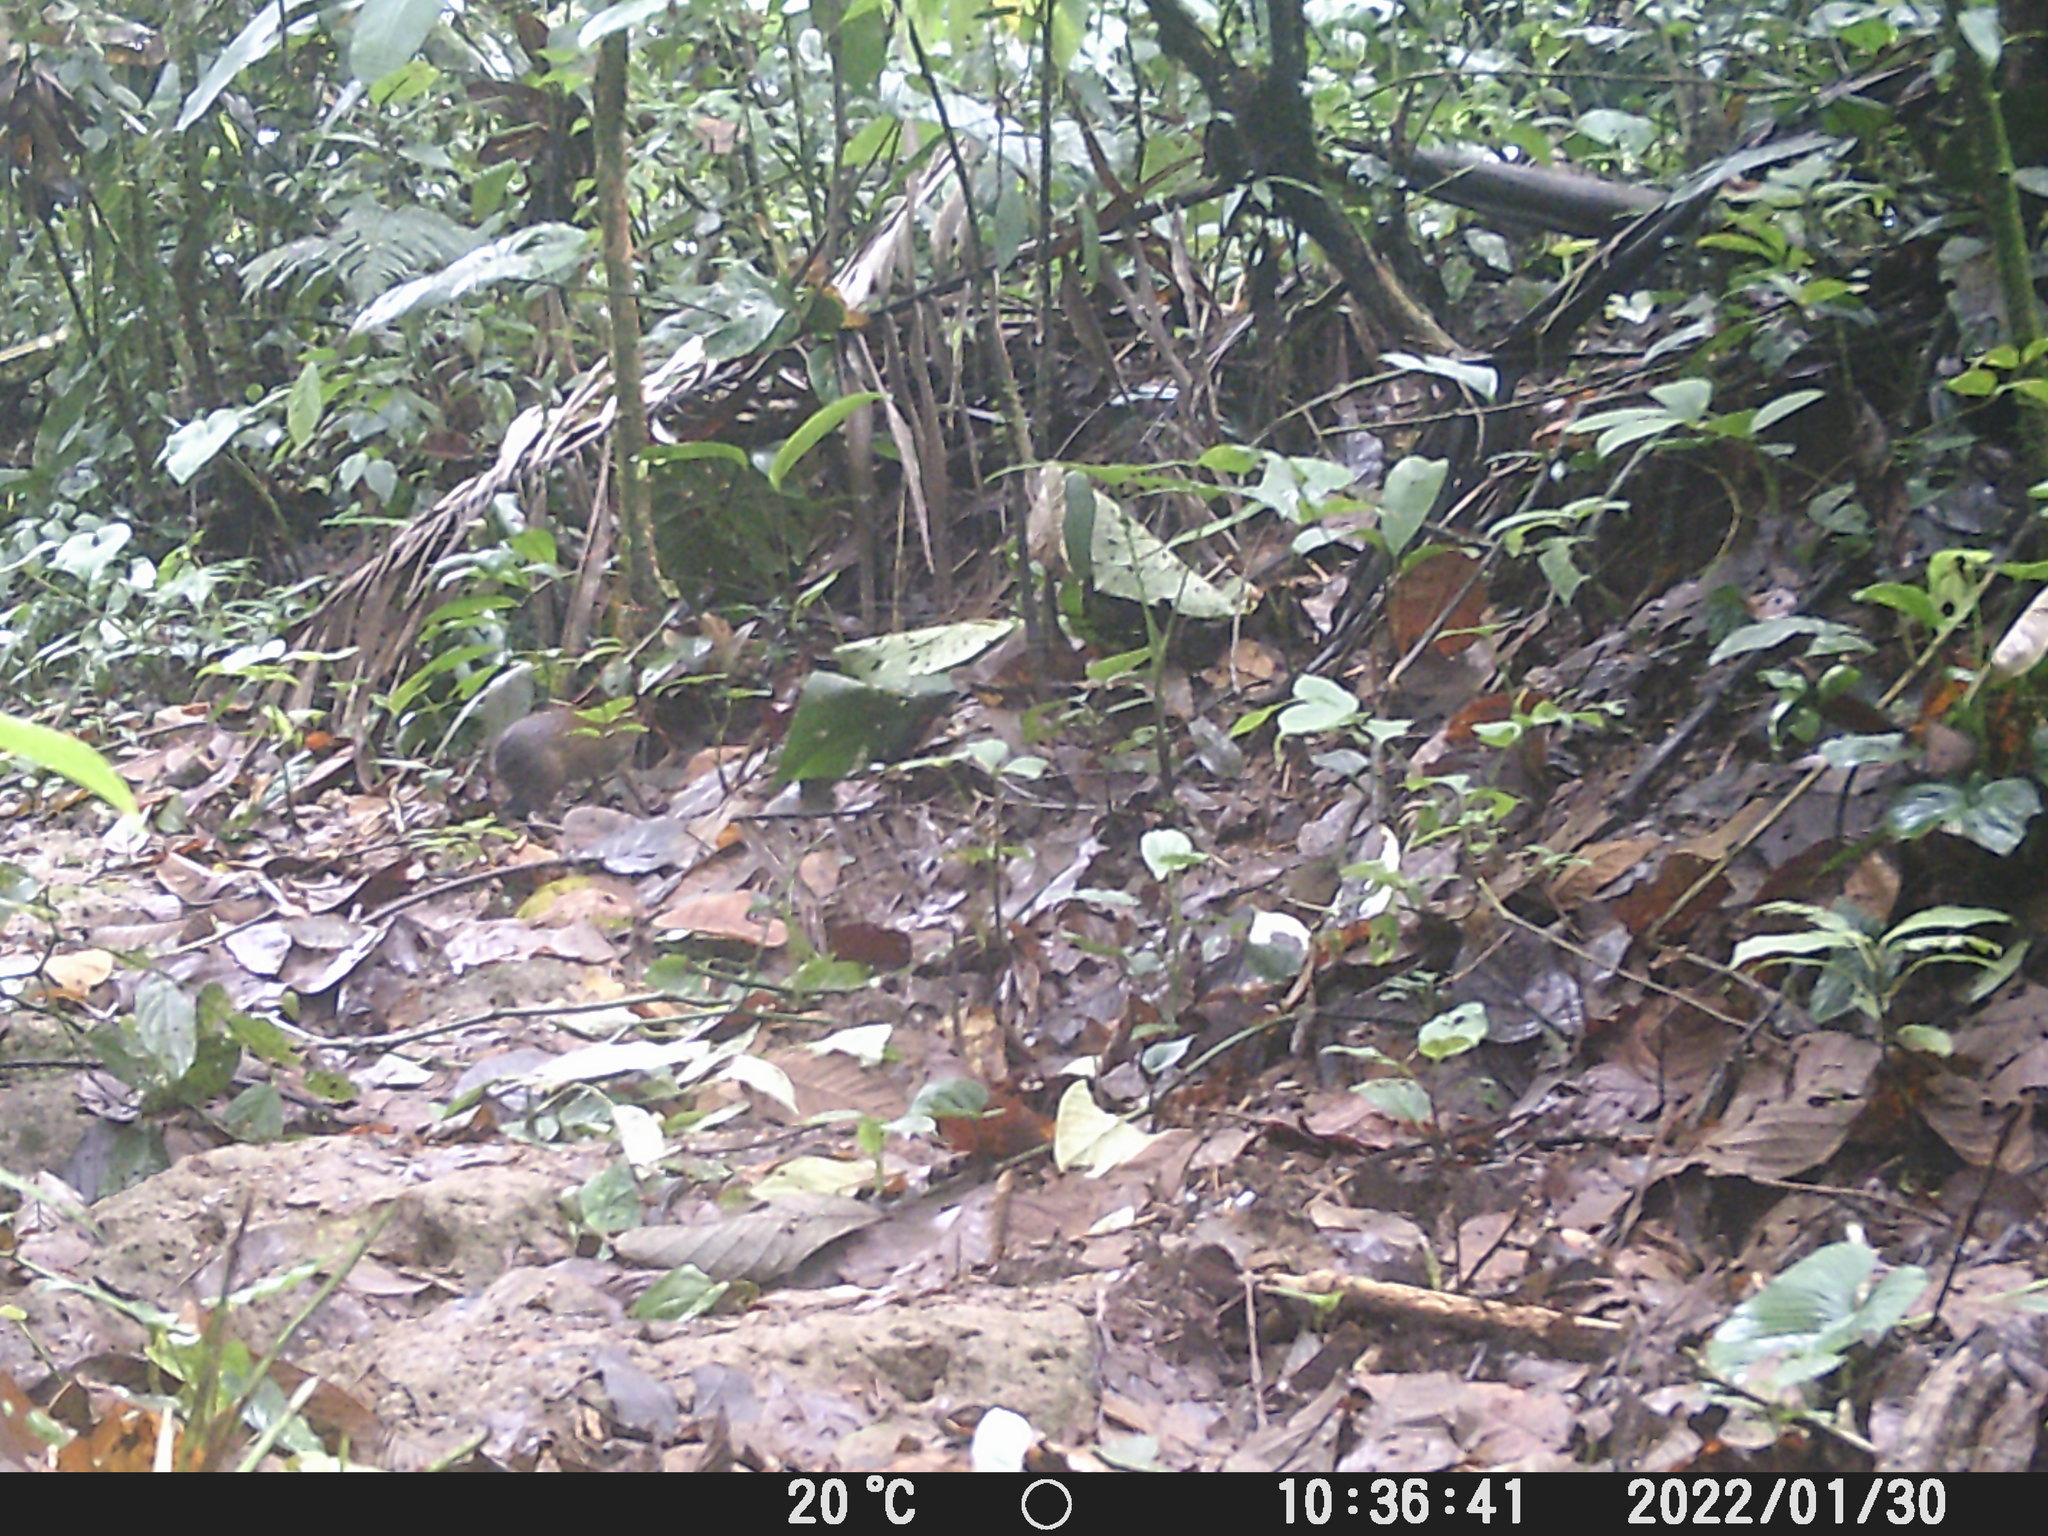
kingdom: Animalia
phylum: Chordata
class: Mammalia
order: Rodentia
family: Dasyproctidae
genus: Dasyprocta
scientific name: Dasyprocta punctata
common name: Central american agouti
